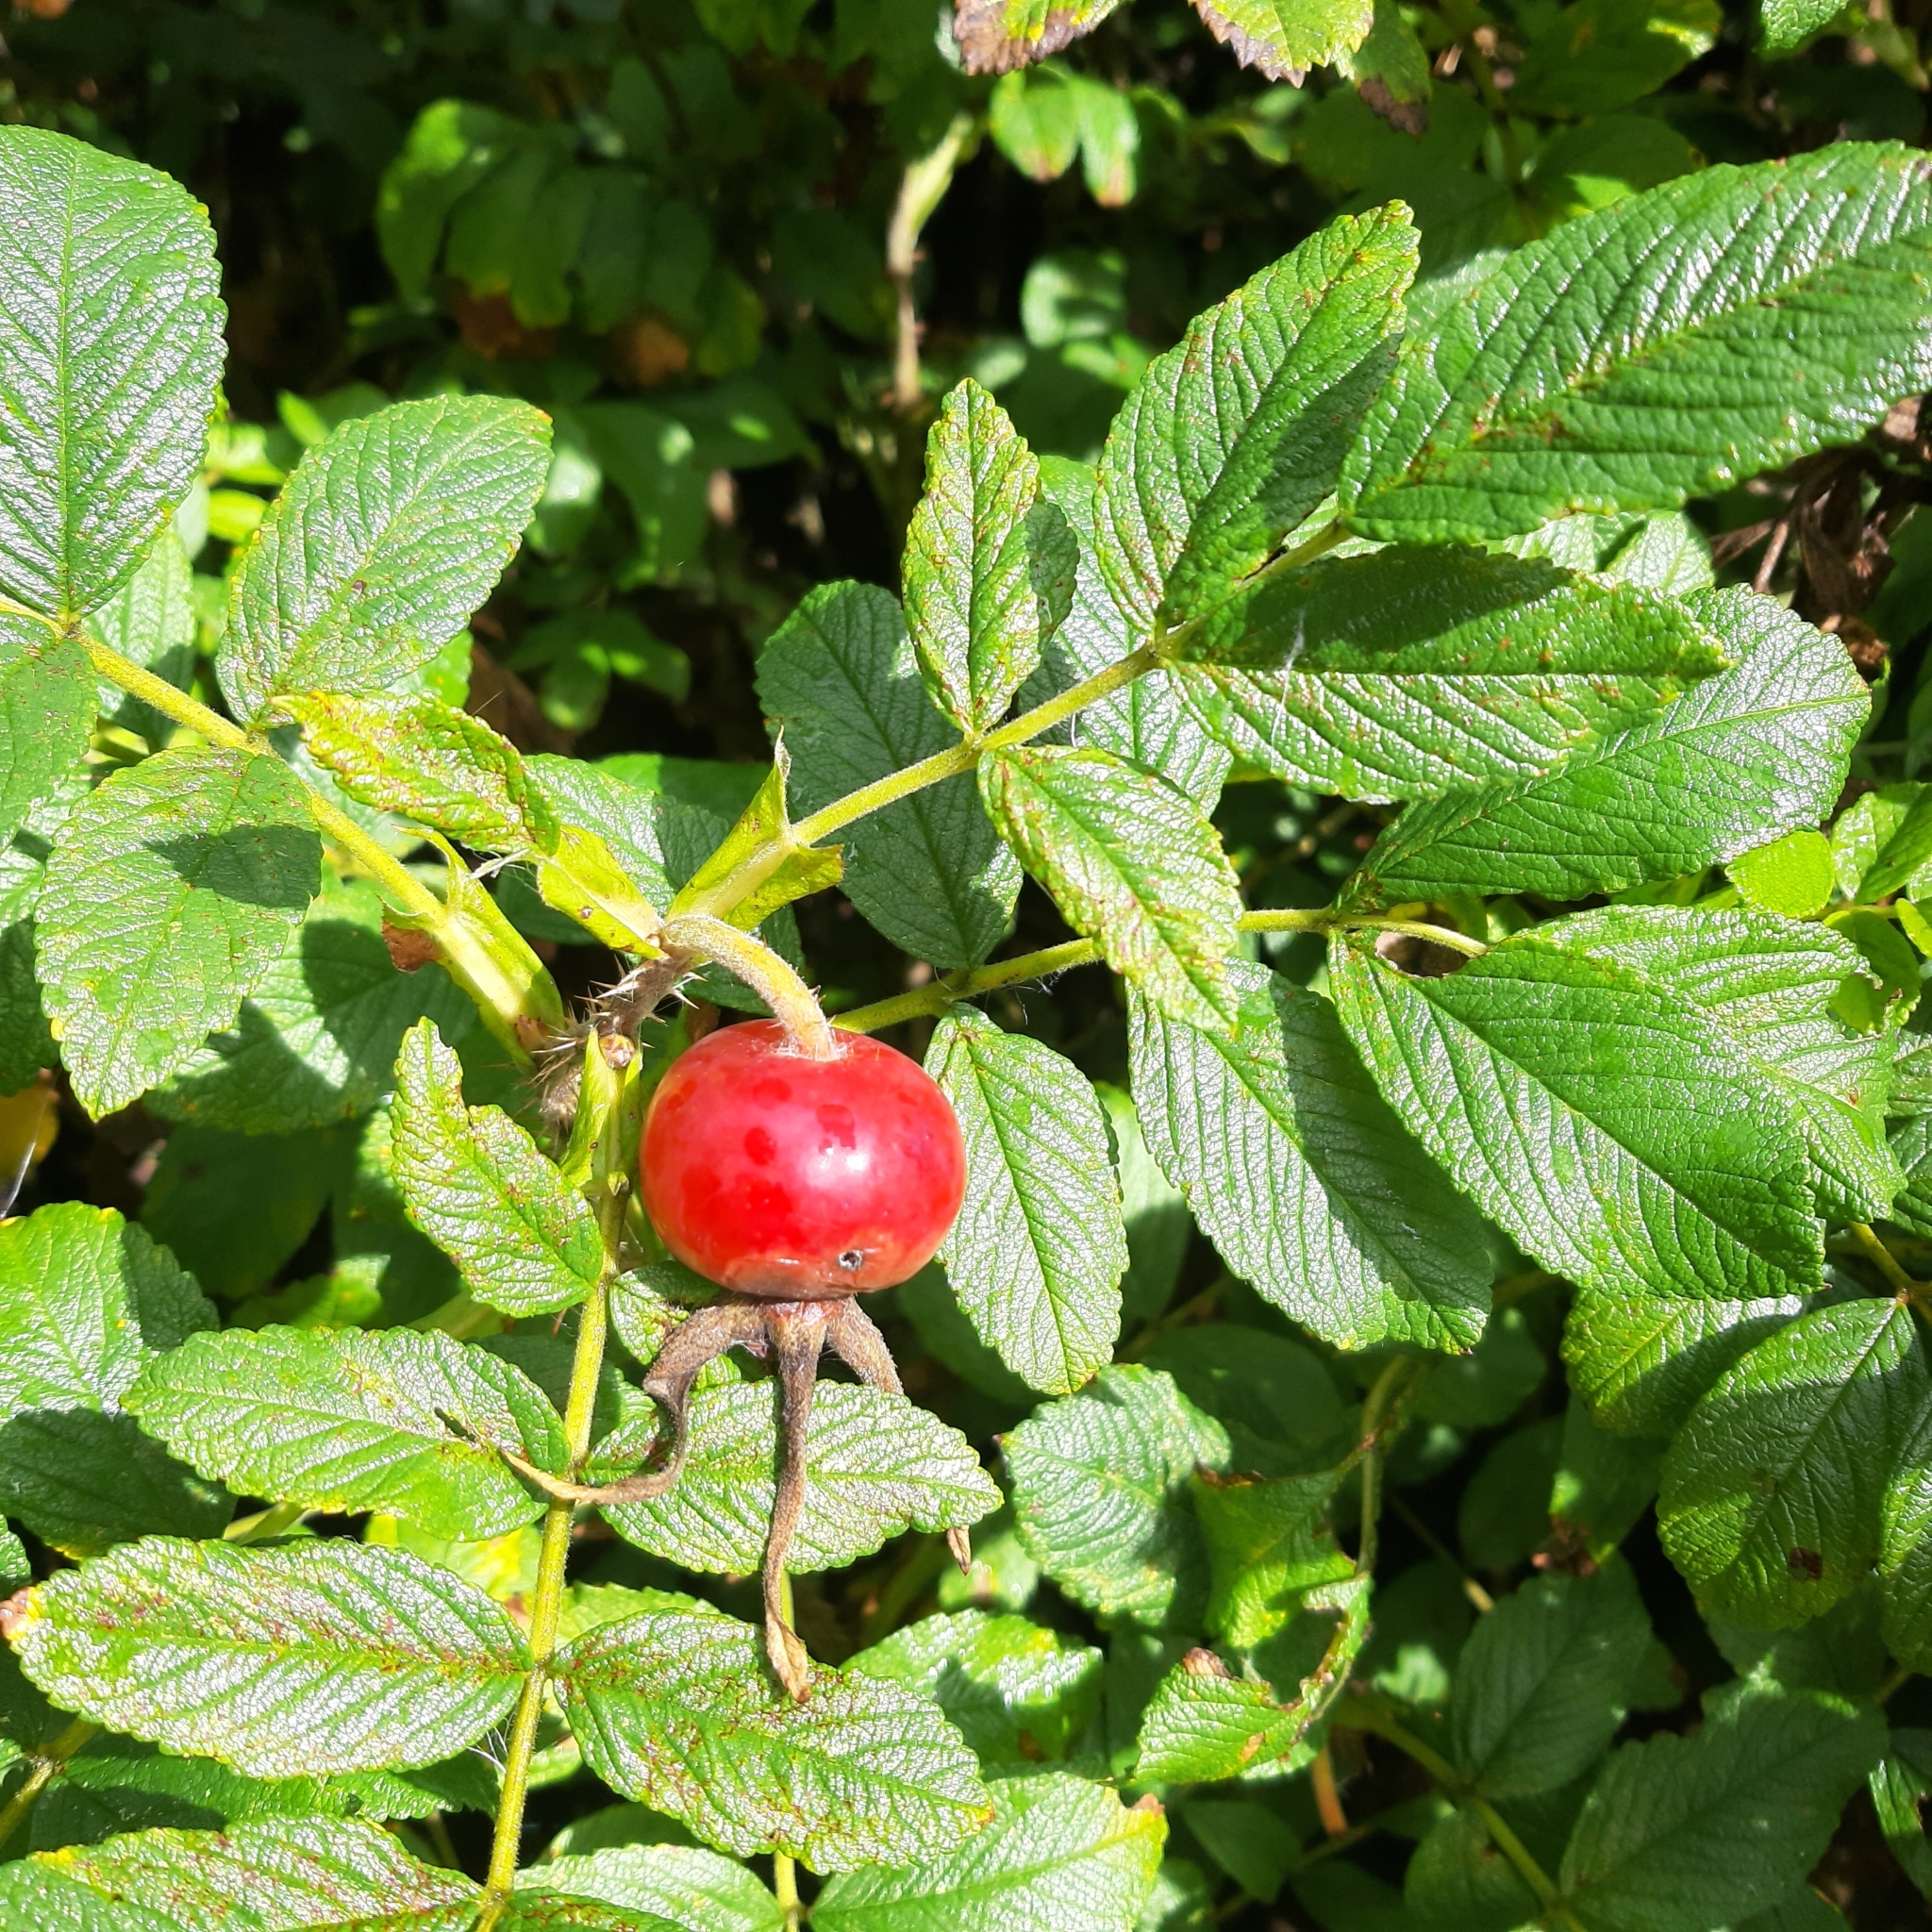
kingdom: Plantae
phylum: Tracheophyta
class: Magnoliopsida
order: Rosales
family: Rosaceae
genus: Rosa
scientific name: Rosa rugosa
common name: Japanese rose
